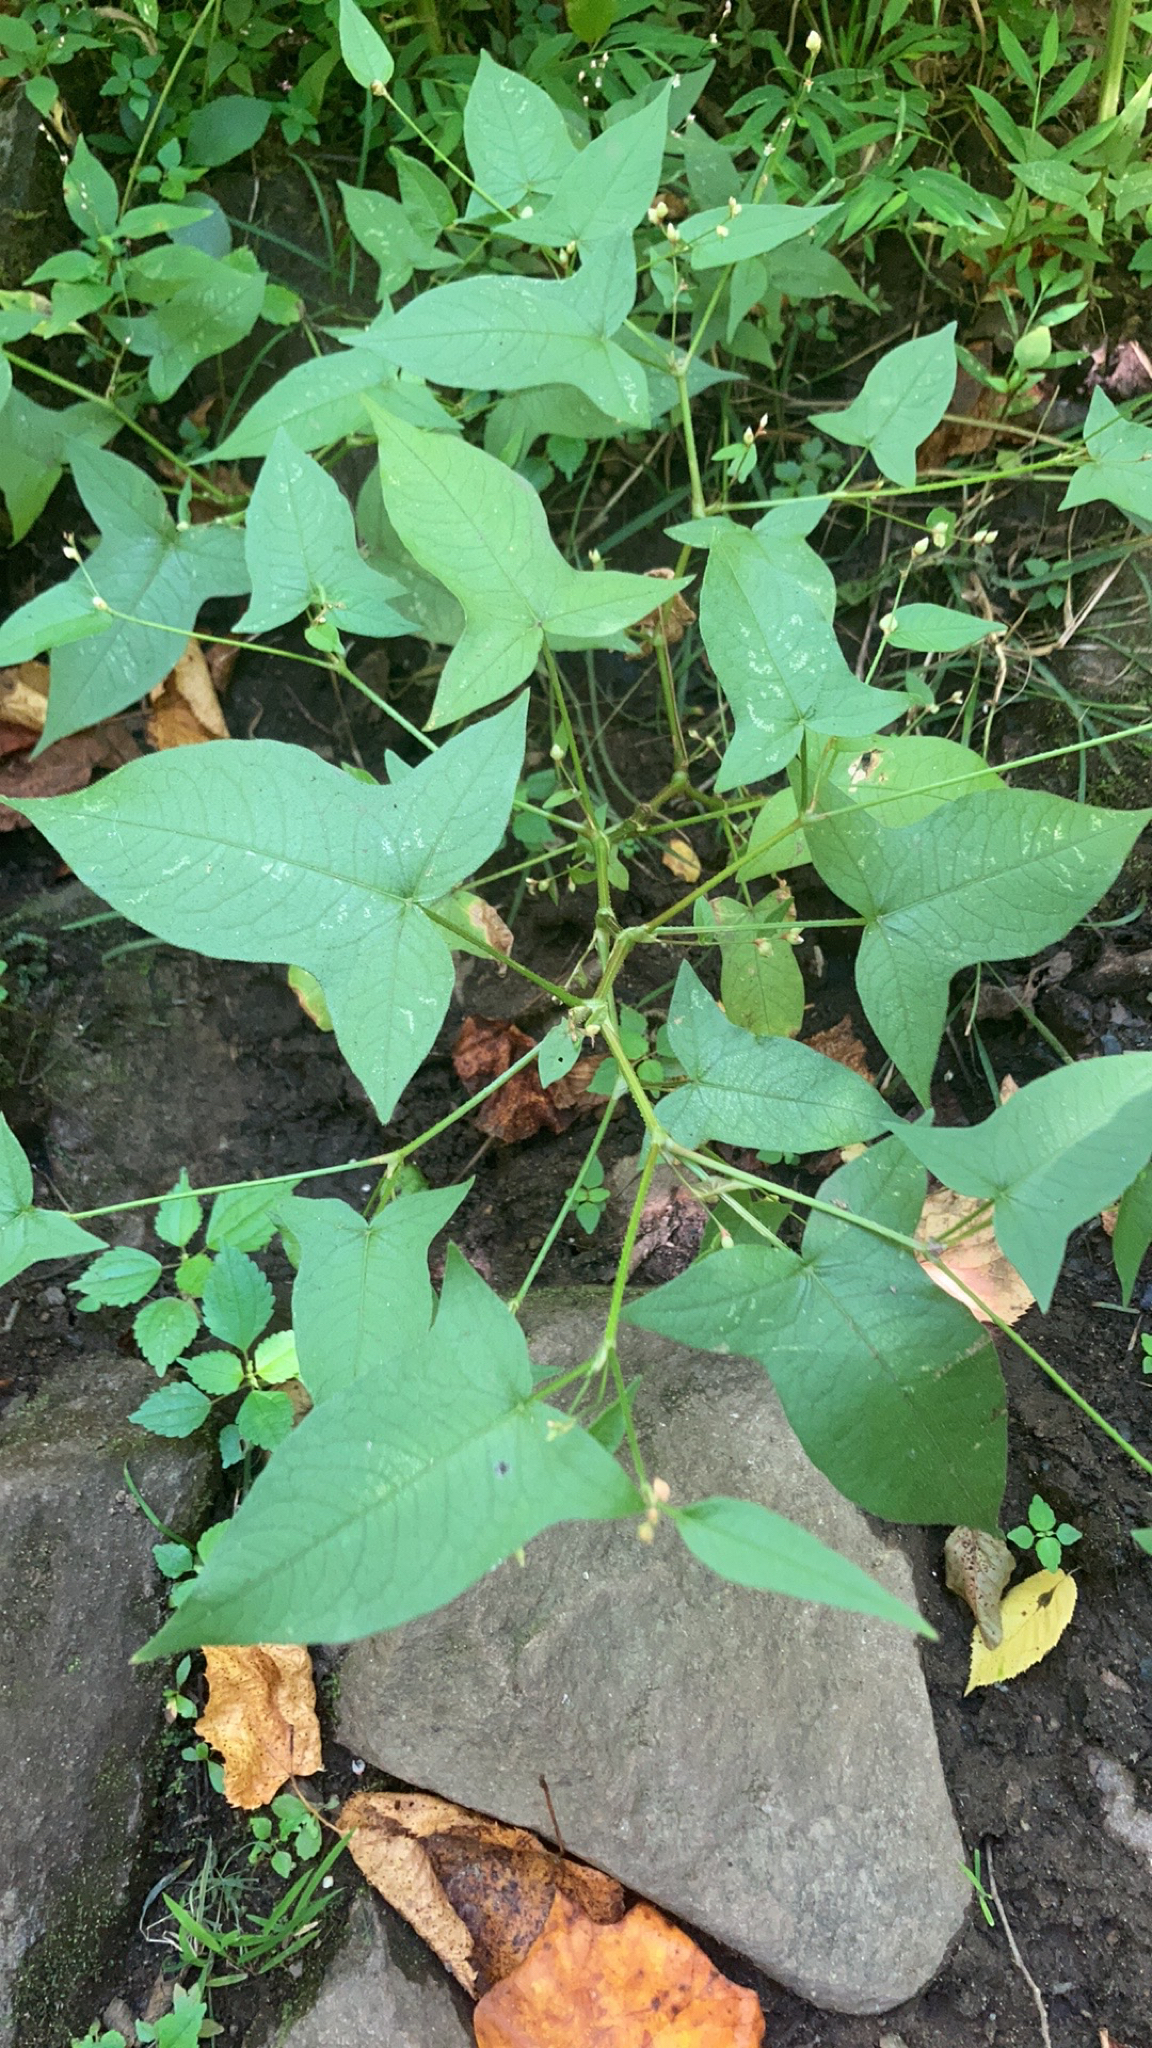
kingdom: Plantae
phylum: Tracheophyta
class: Magnoliopsida
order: Caryophyllales
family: Polygonaceae
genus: Persicaria
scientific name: Persicaria arifolia
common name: Halberd-leaved tear-thumb
